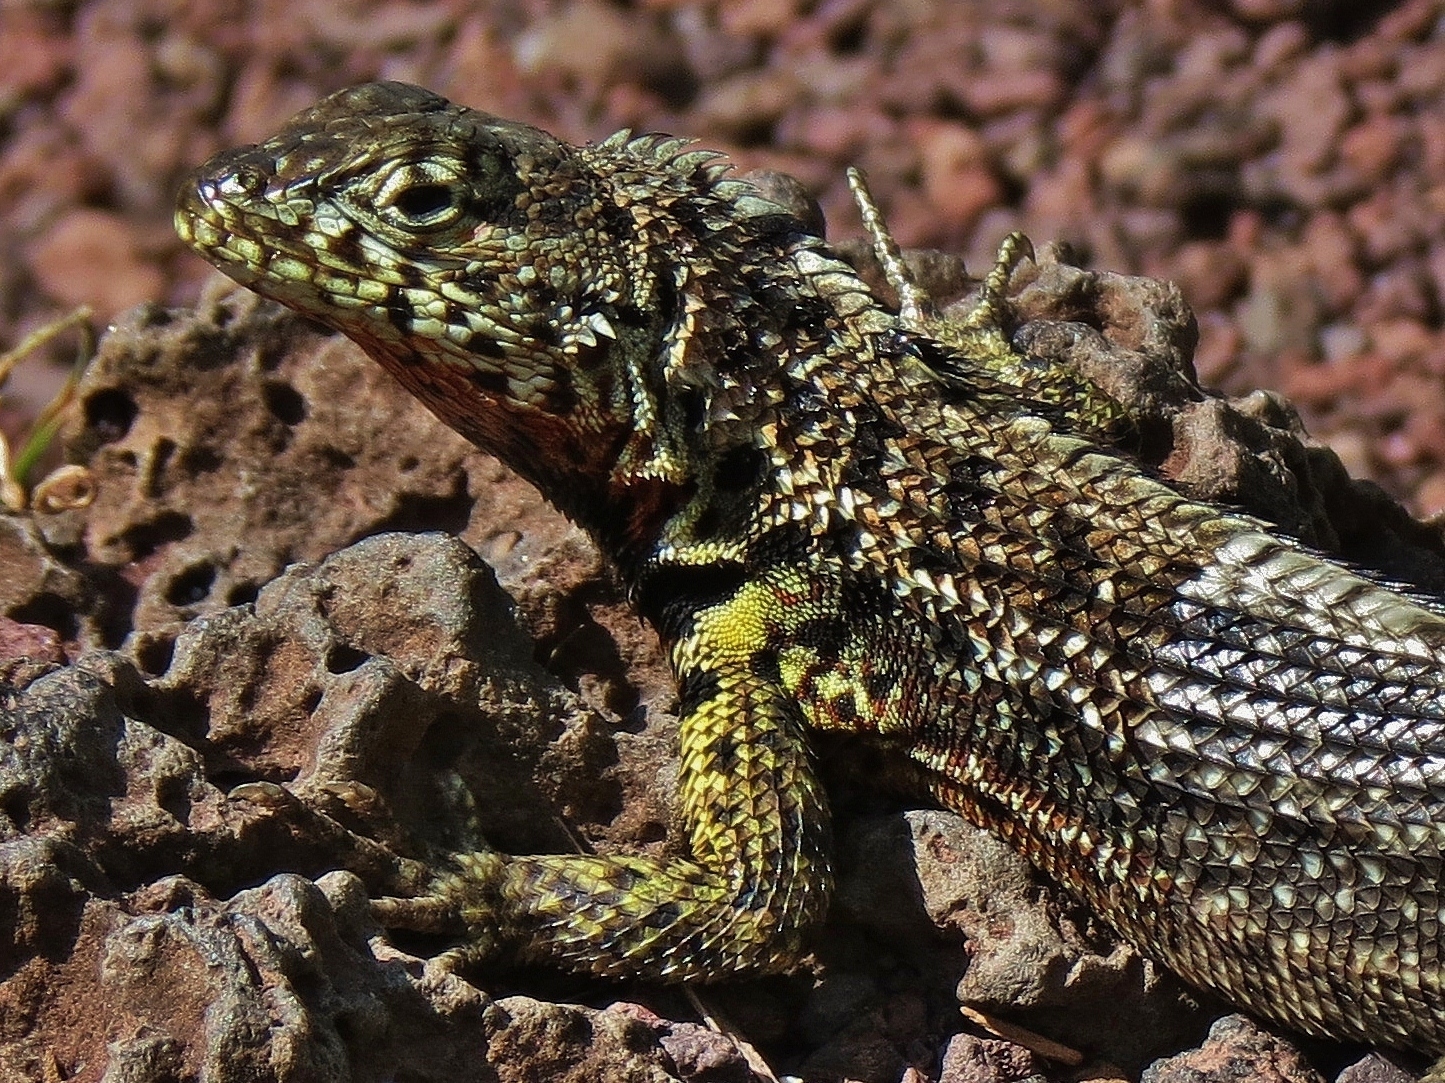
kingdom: Animalia
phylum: Chordata
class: Squamata
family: Tropiduridae
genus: Microlophus
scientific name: Microlophus indefatigabilis
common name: Galapagos lava lizard
